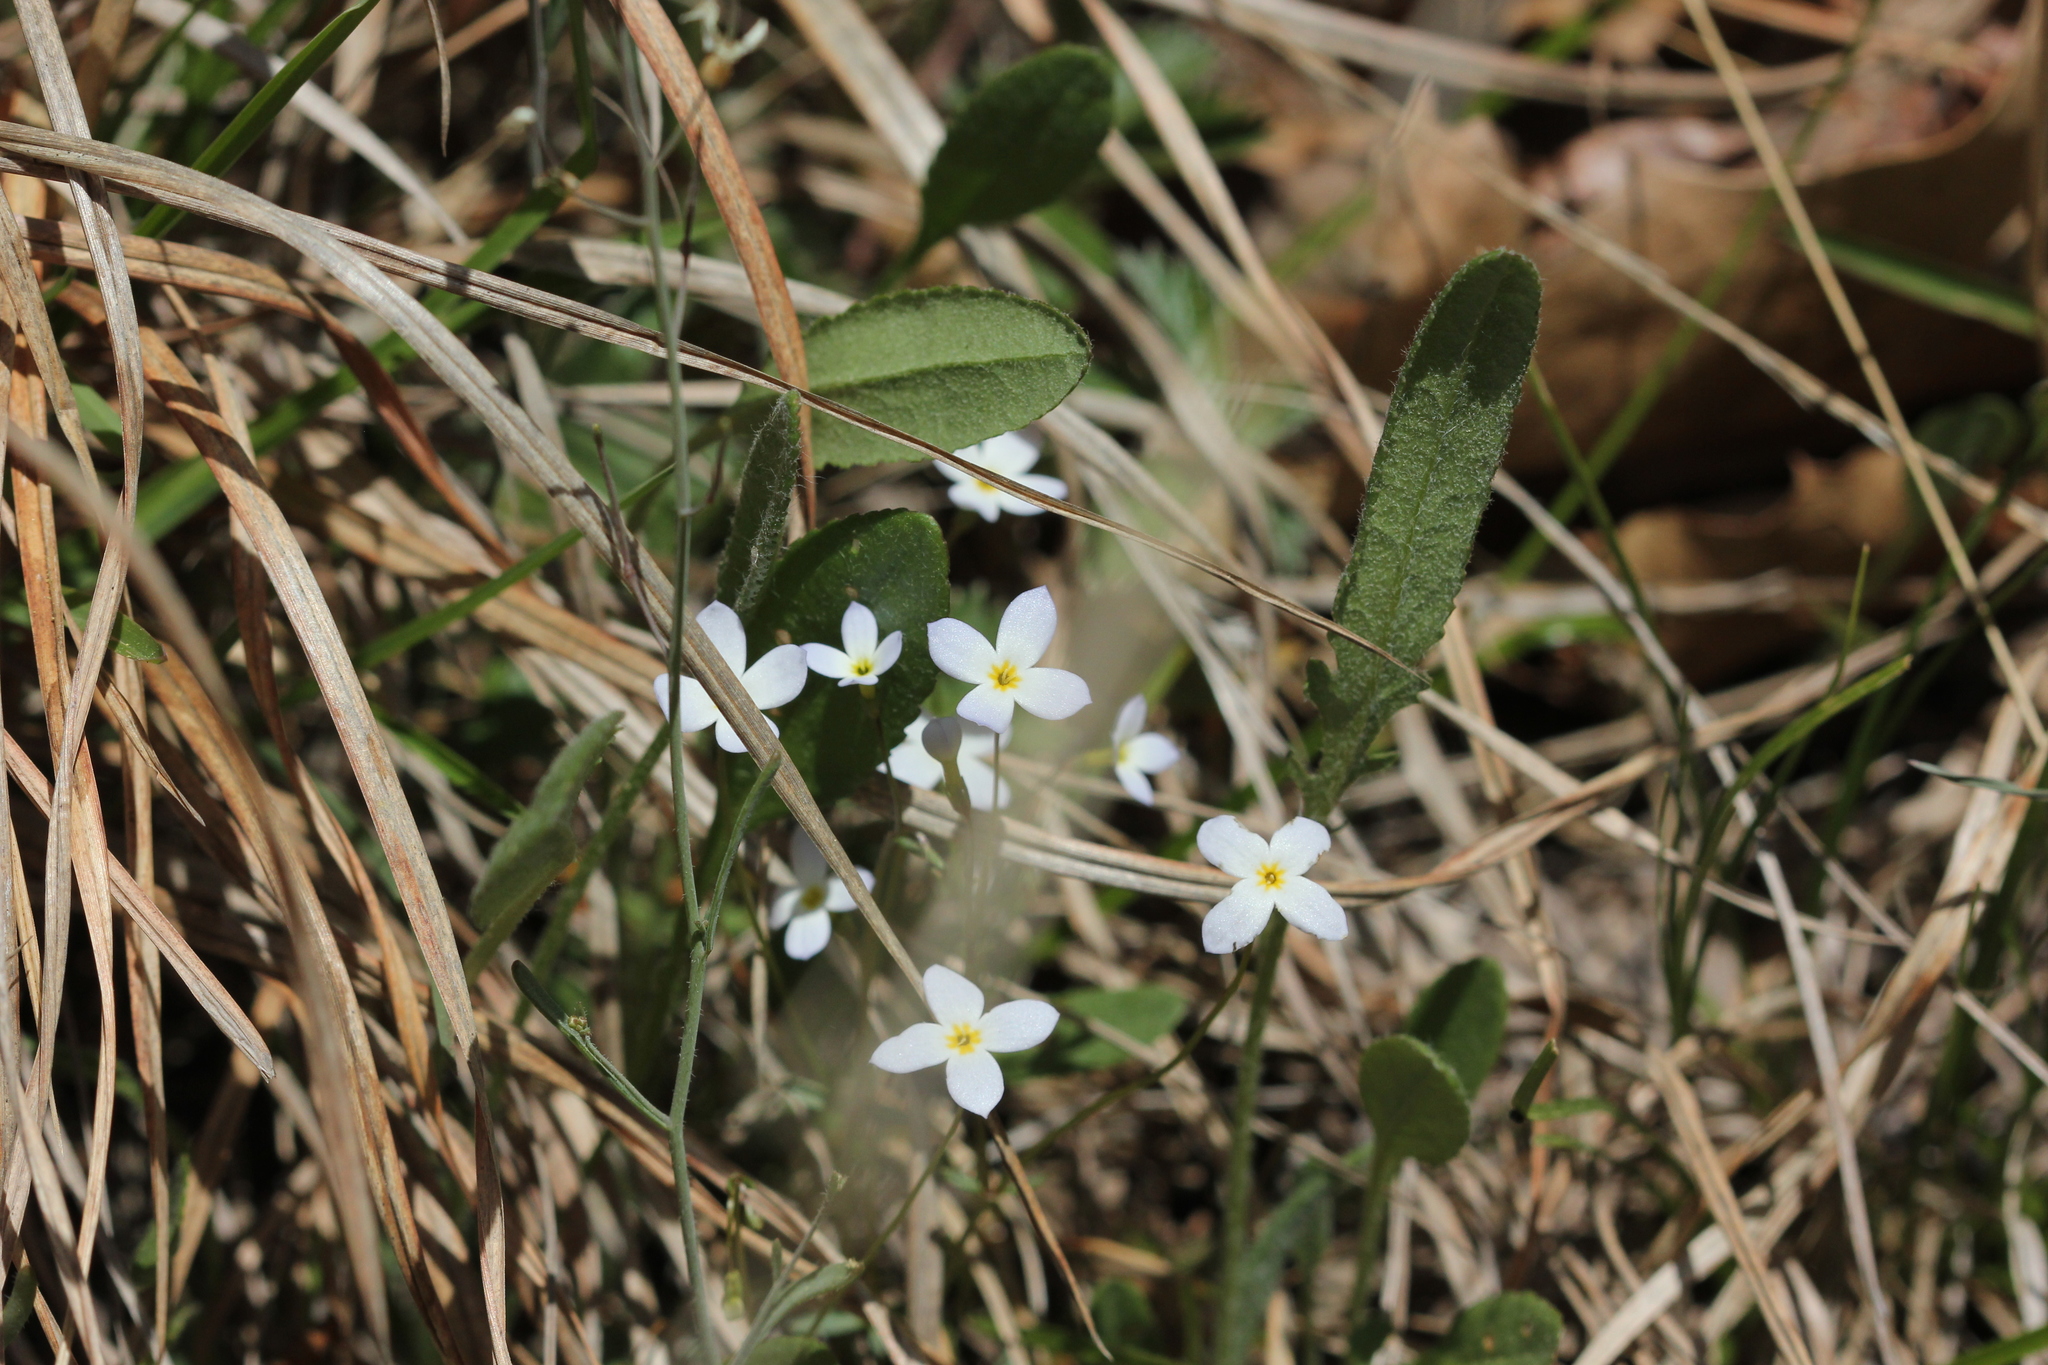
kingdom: Plantae
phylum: Tracheophyta
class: Magnoliopsida
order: Gentianales
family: Rubiaceae
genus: Houstonia
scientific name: Houstonia caerulea
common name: Bluets
